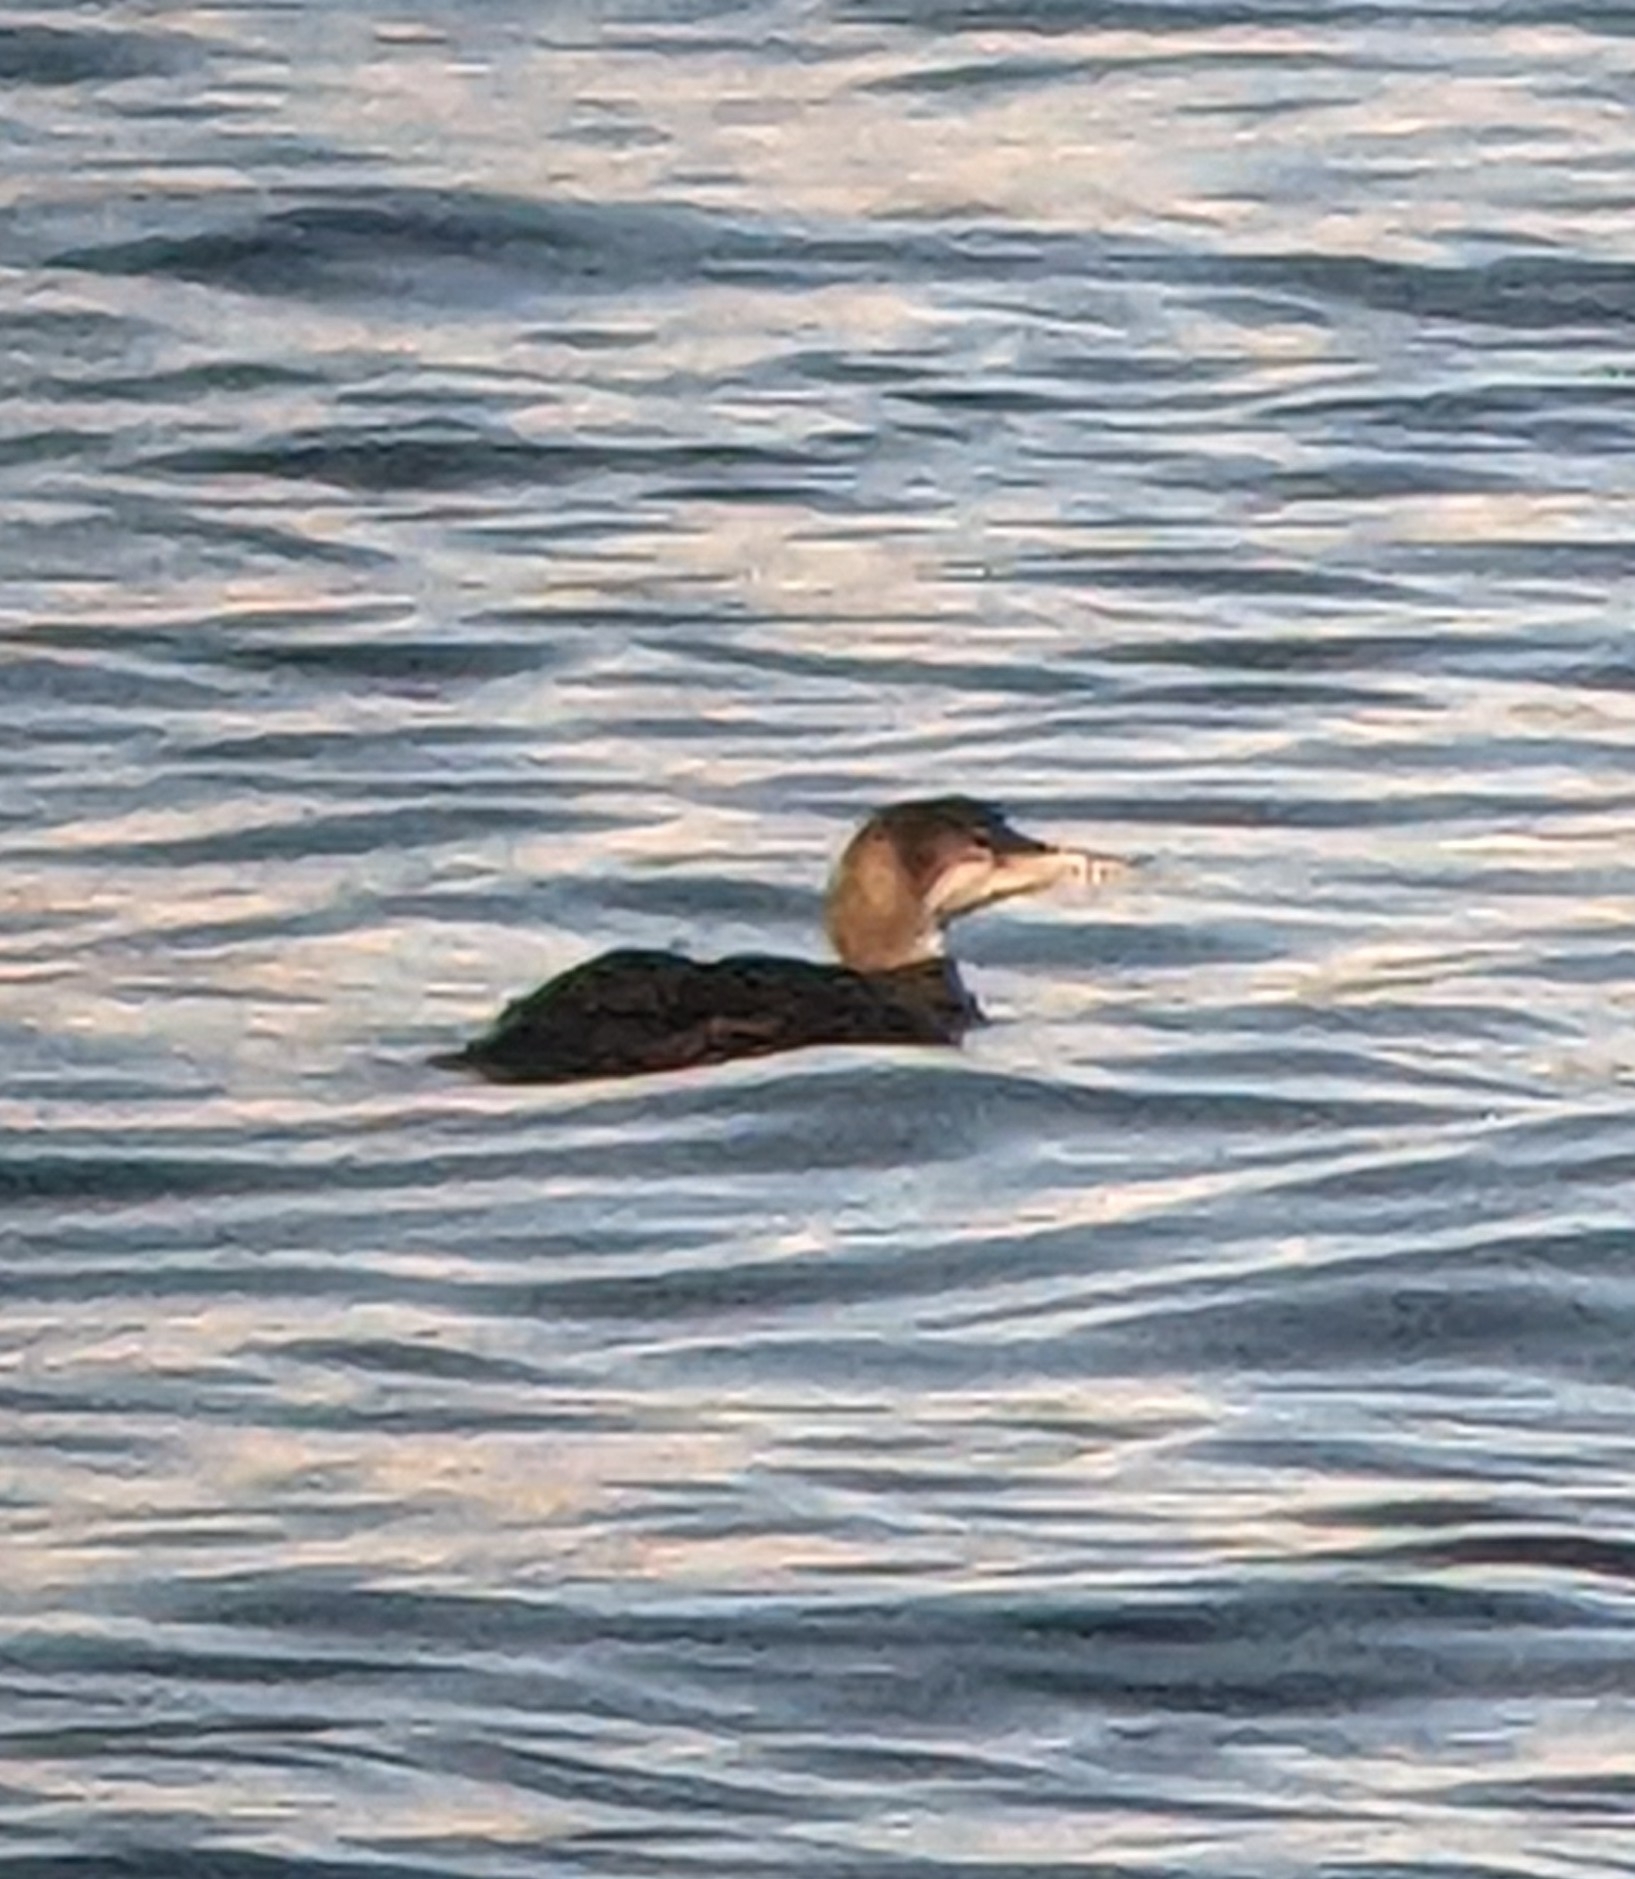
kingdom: Animalia
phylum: Chordata
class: Aves
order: Gaviiformes
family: Gaviidae
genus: Gavia
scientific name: Gavia immer
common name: Common loon
